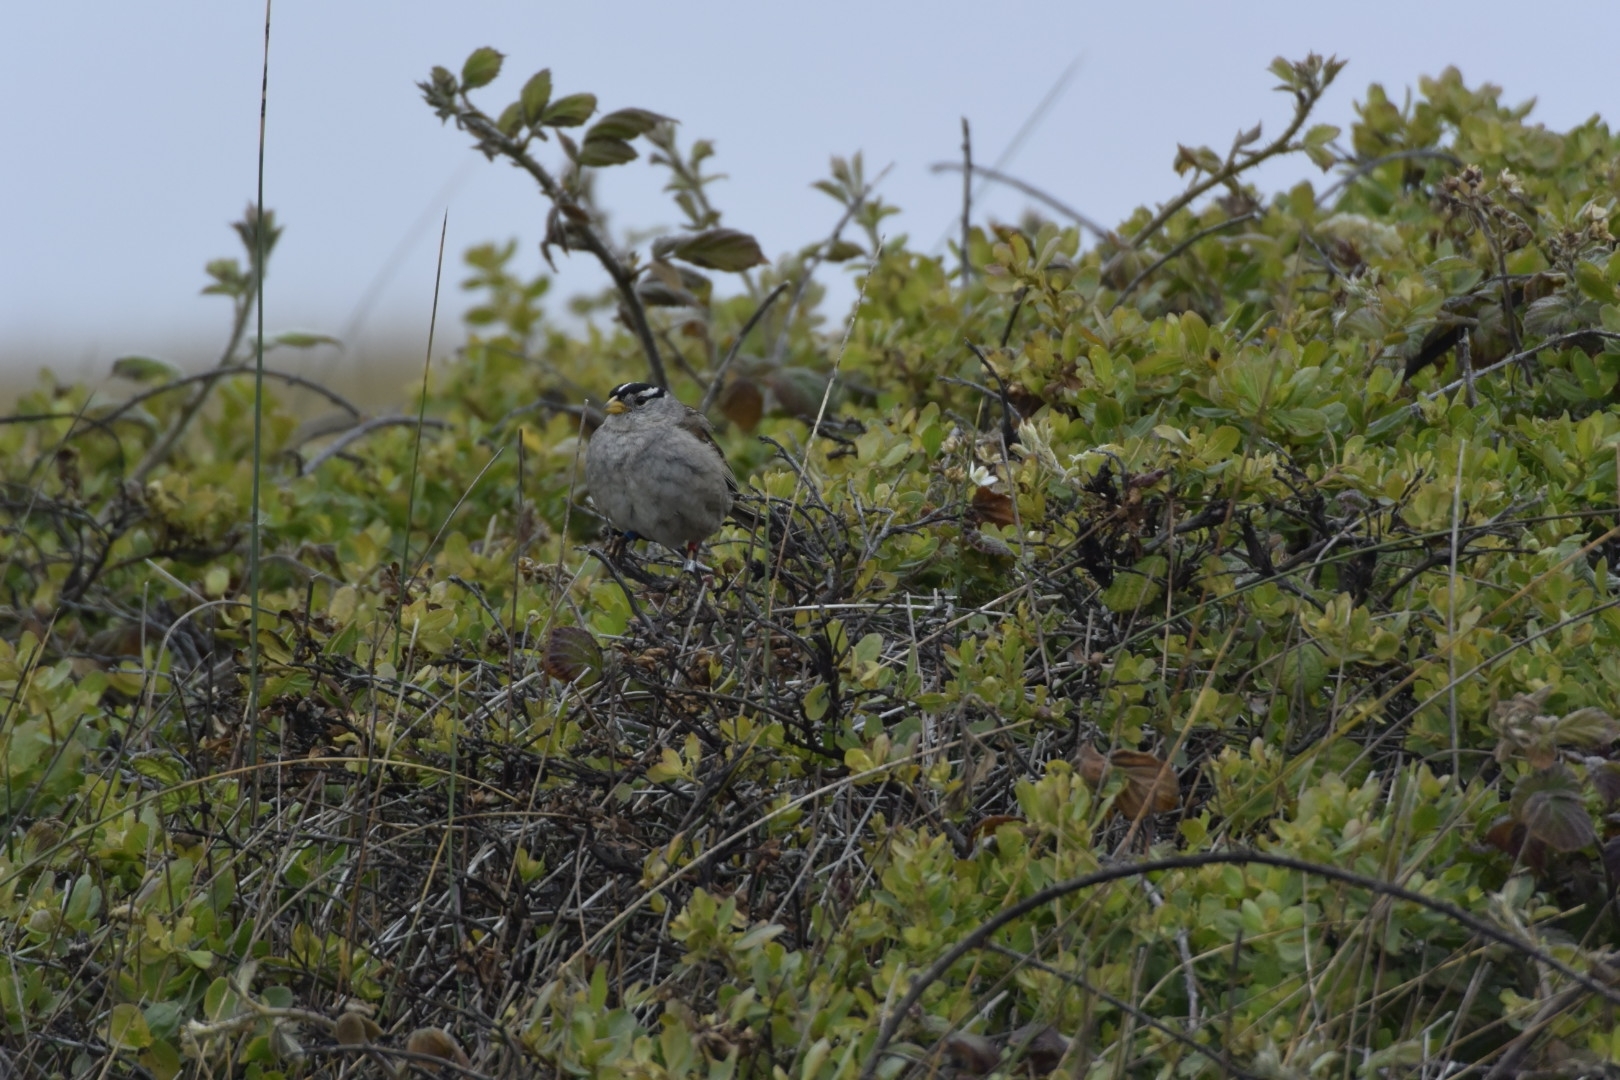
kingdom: Animalia
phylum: Chordata
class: Aves
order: Passeriformes
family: Passerellidae
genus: Zonotrichia
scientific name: Zonotrichia leucophrys
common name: White-crowned sparrow
